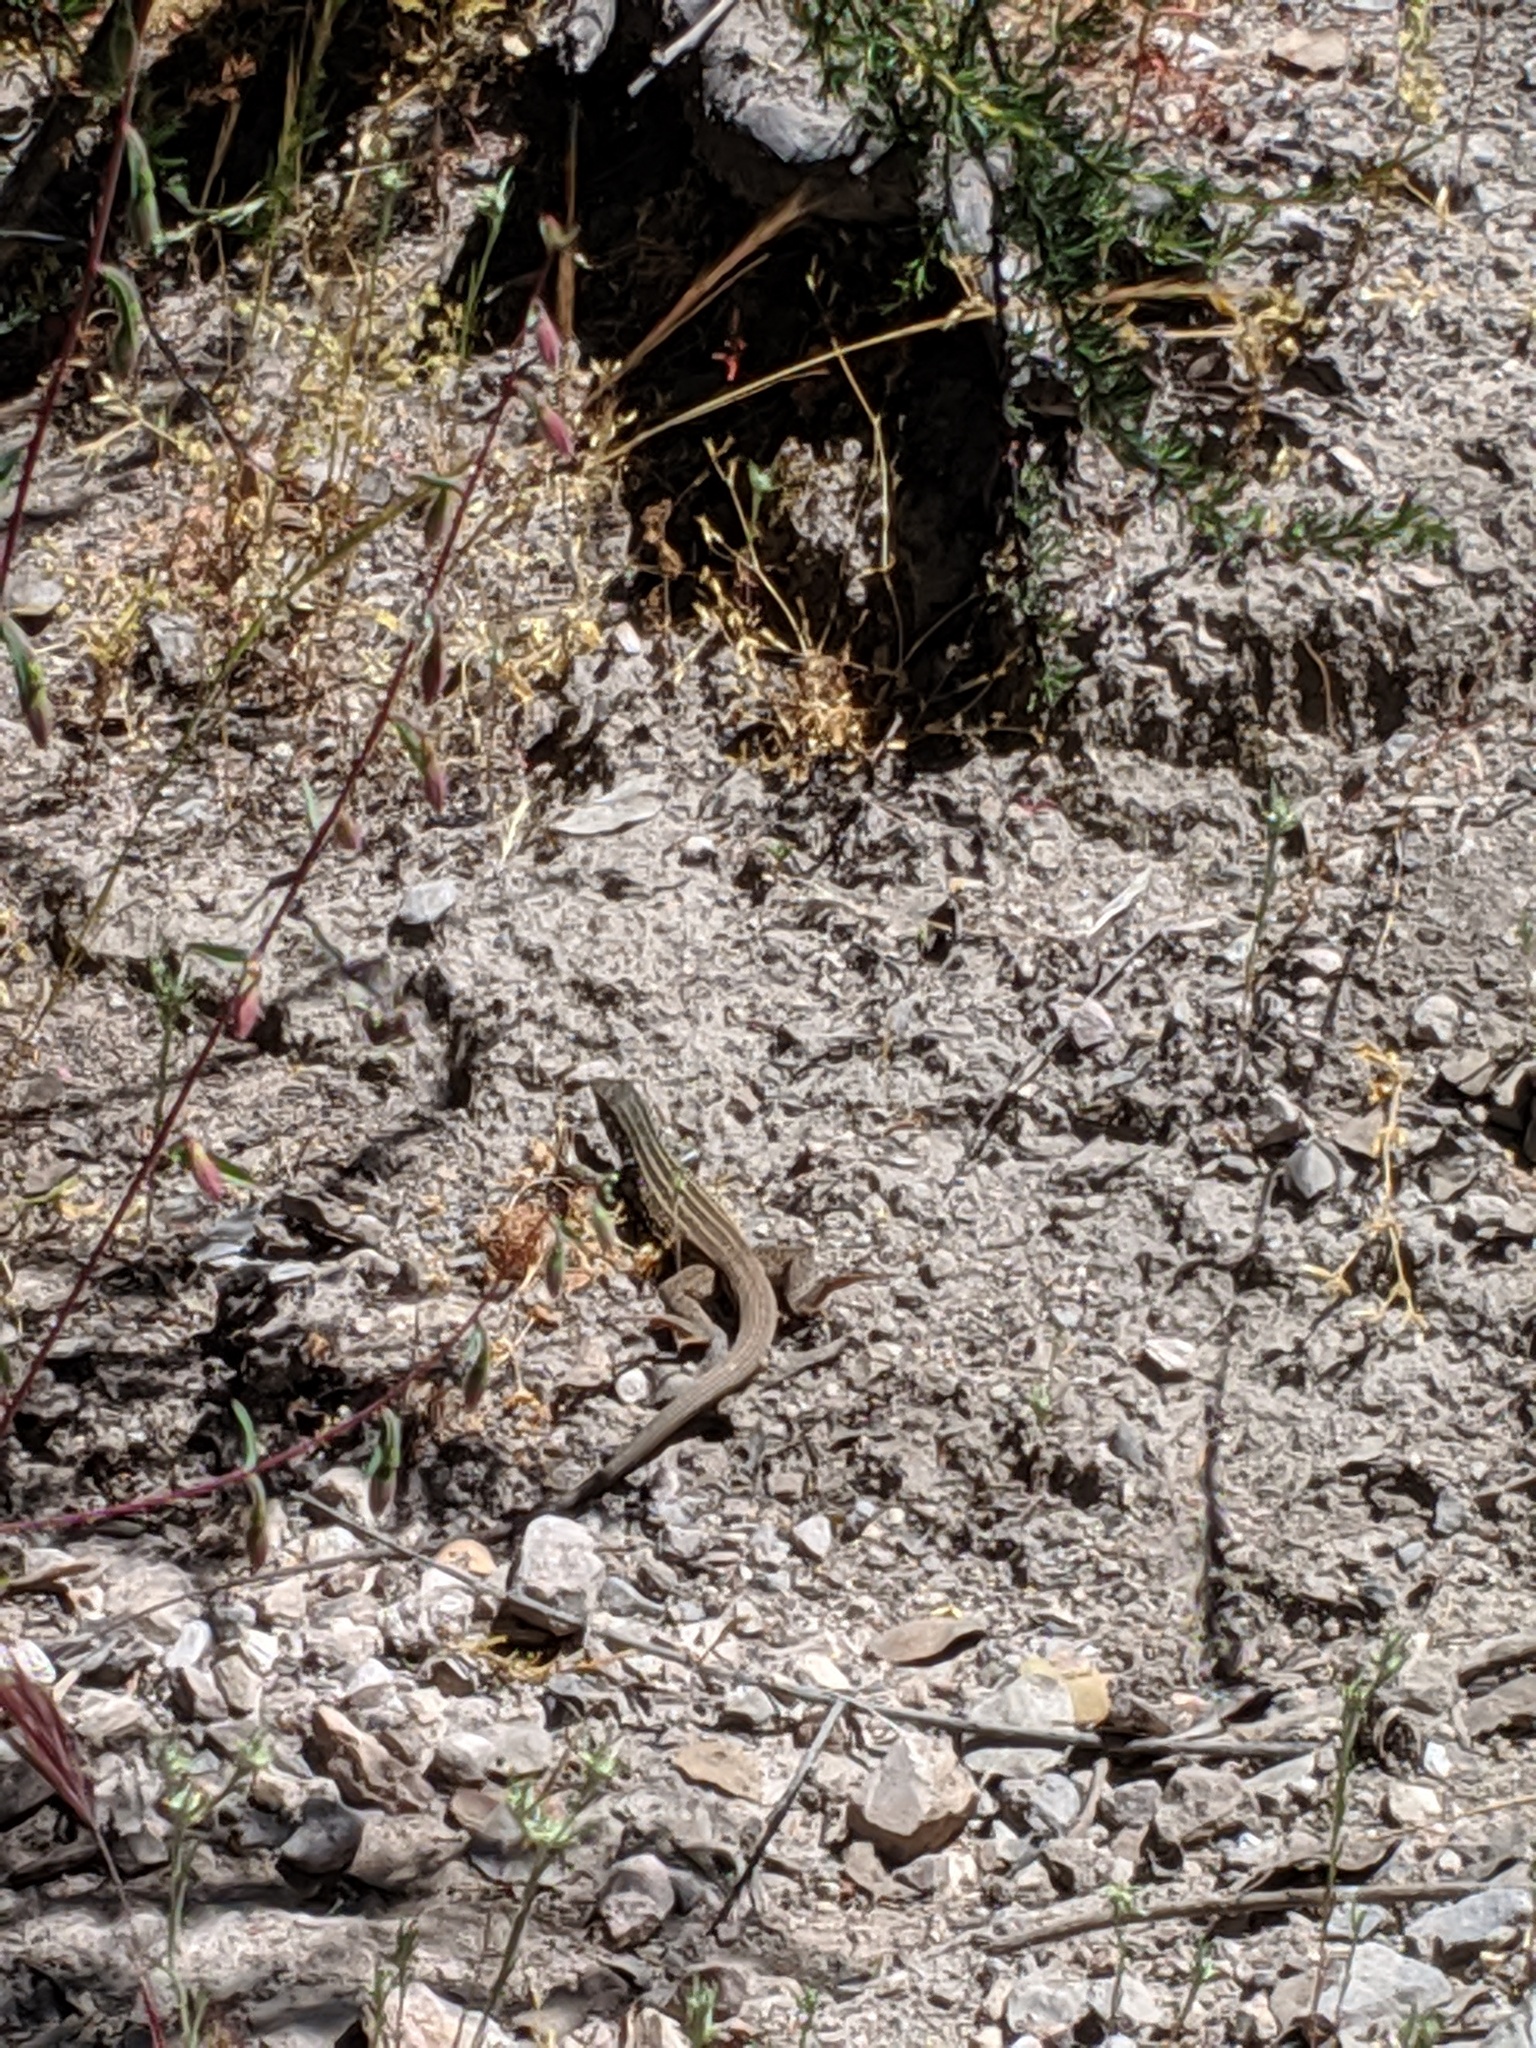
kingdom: Animalia
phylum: Chordata
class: Squamata
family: Teiidae
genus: Aspidoscelis
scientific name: Aspidoscelis tigris
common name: Tiger whiptail
